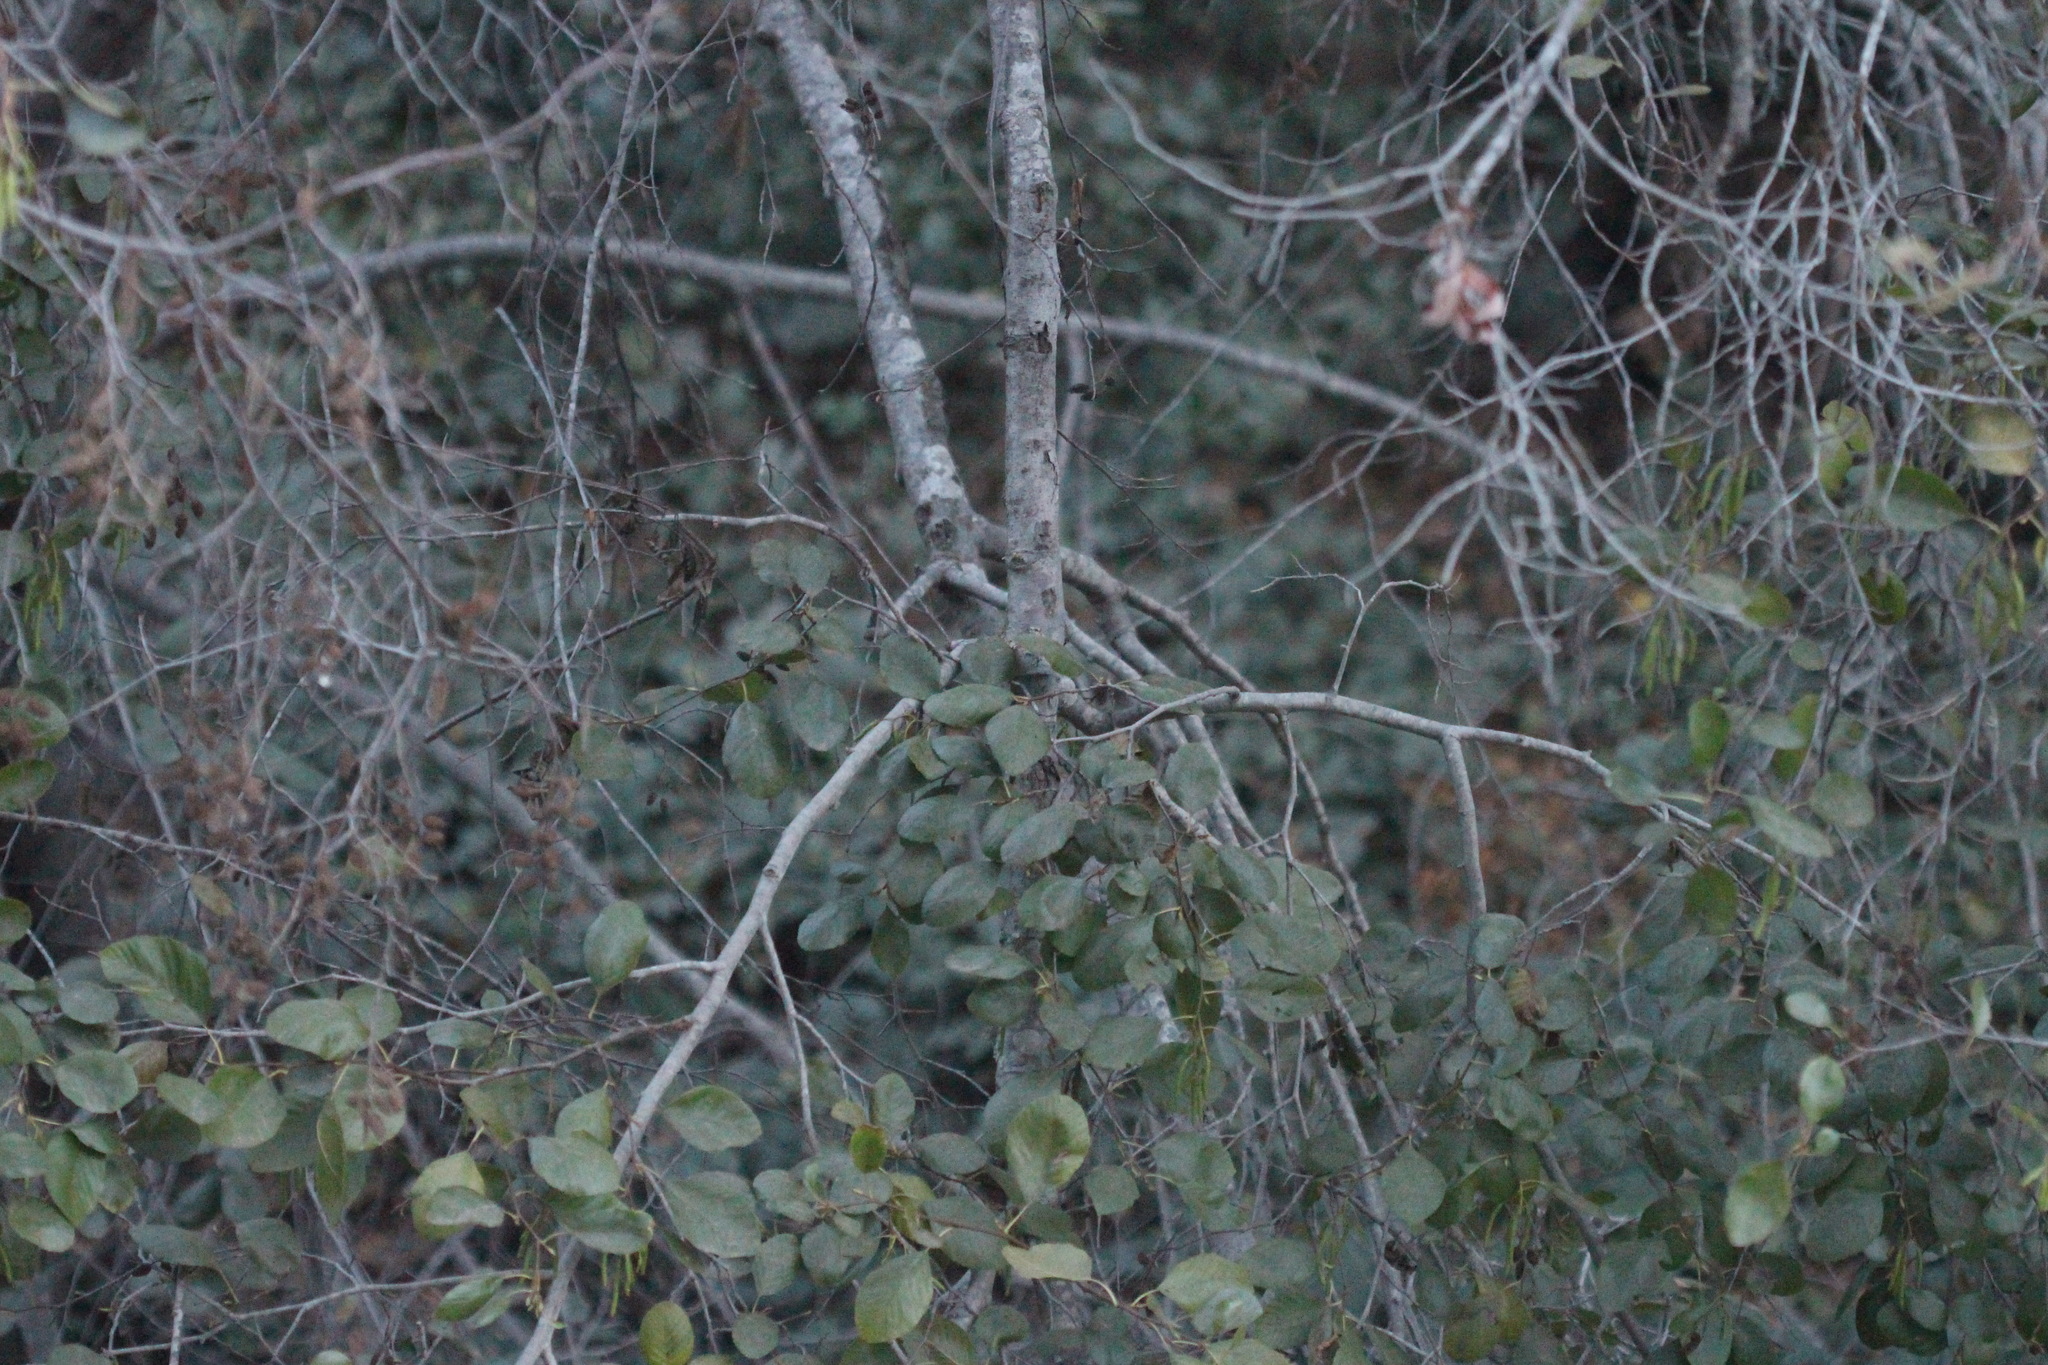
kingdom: Plantae
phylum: Tracheophyta
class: Magnoliopsida
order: Fagales
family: Betulaceae
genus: Alnus
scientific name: Alnus rhombifolia
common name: California alder
